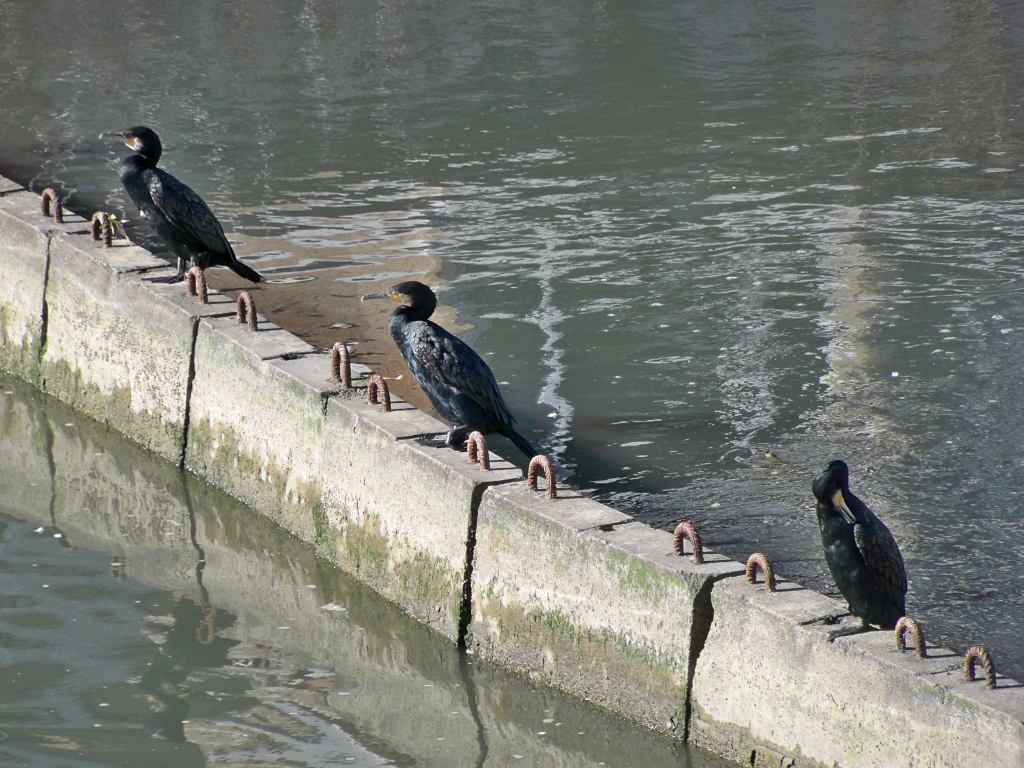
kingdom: Animalia
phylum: Chordata
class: Aves
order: Suliformes
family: Phalacrocoracidae
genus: Phalacrocorax
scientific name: Phalacrocorax carbo
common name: Great cormorant
